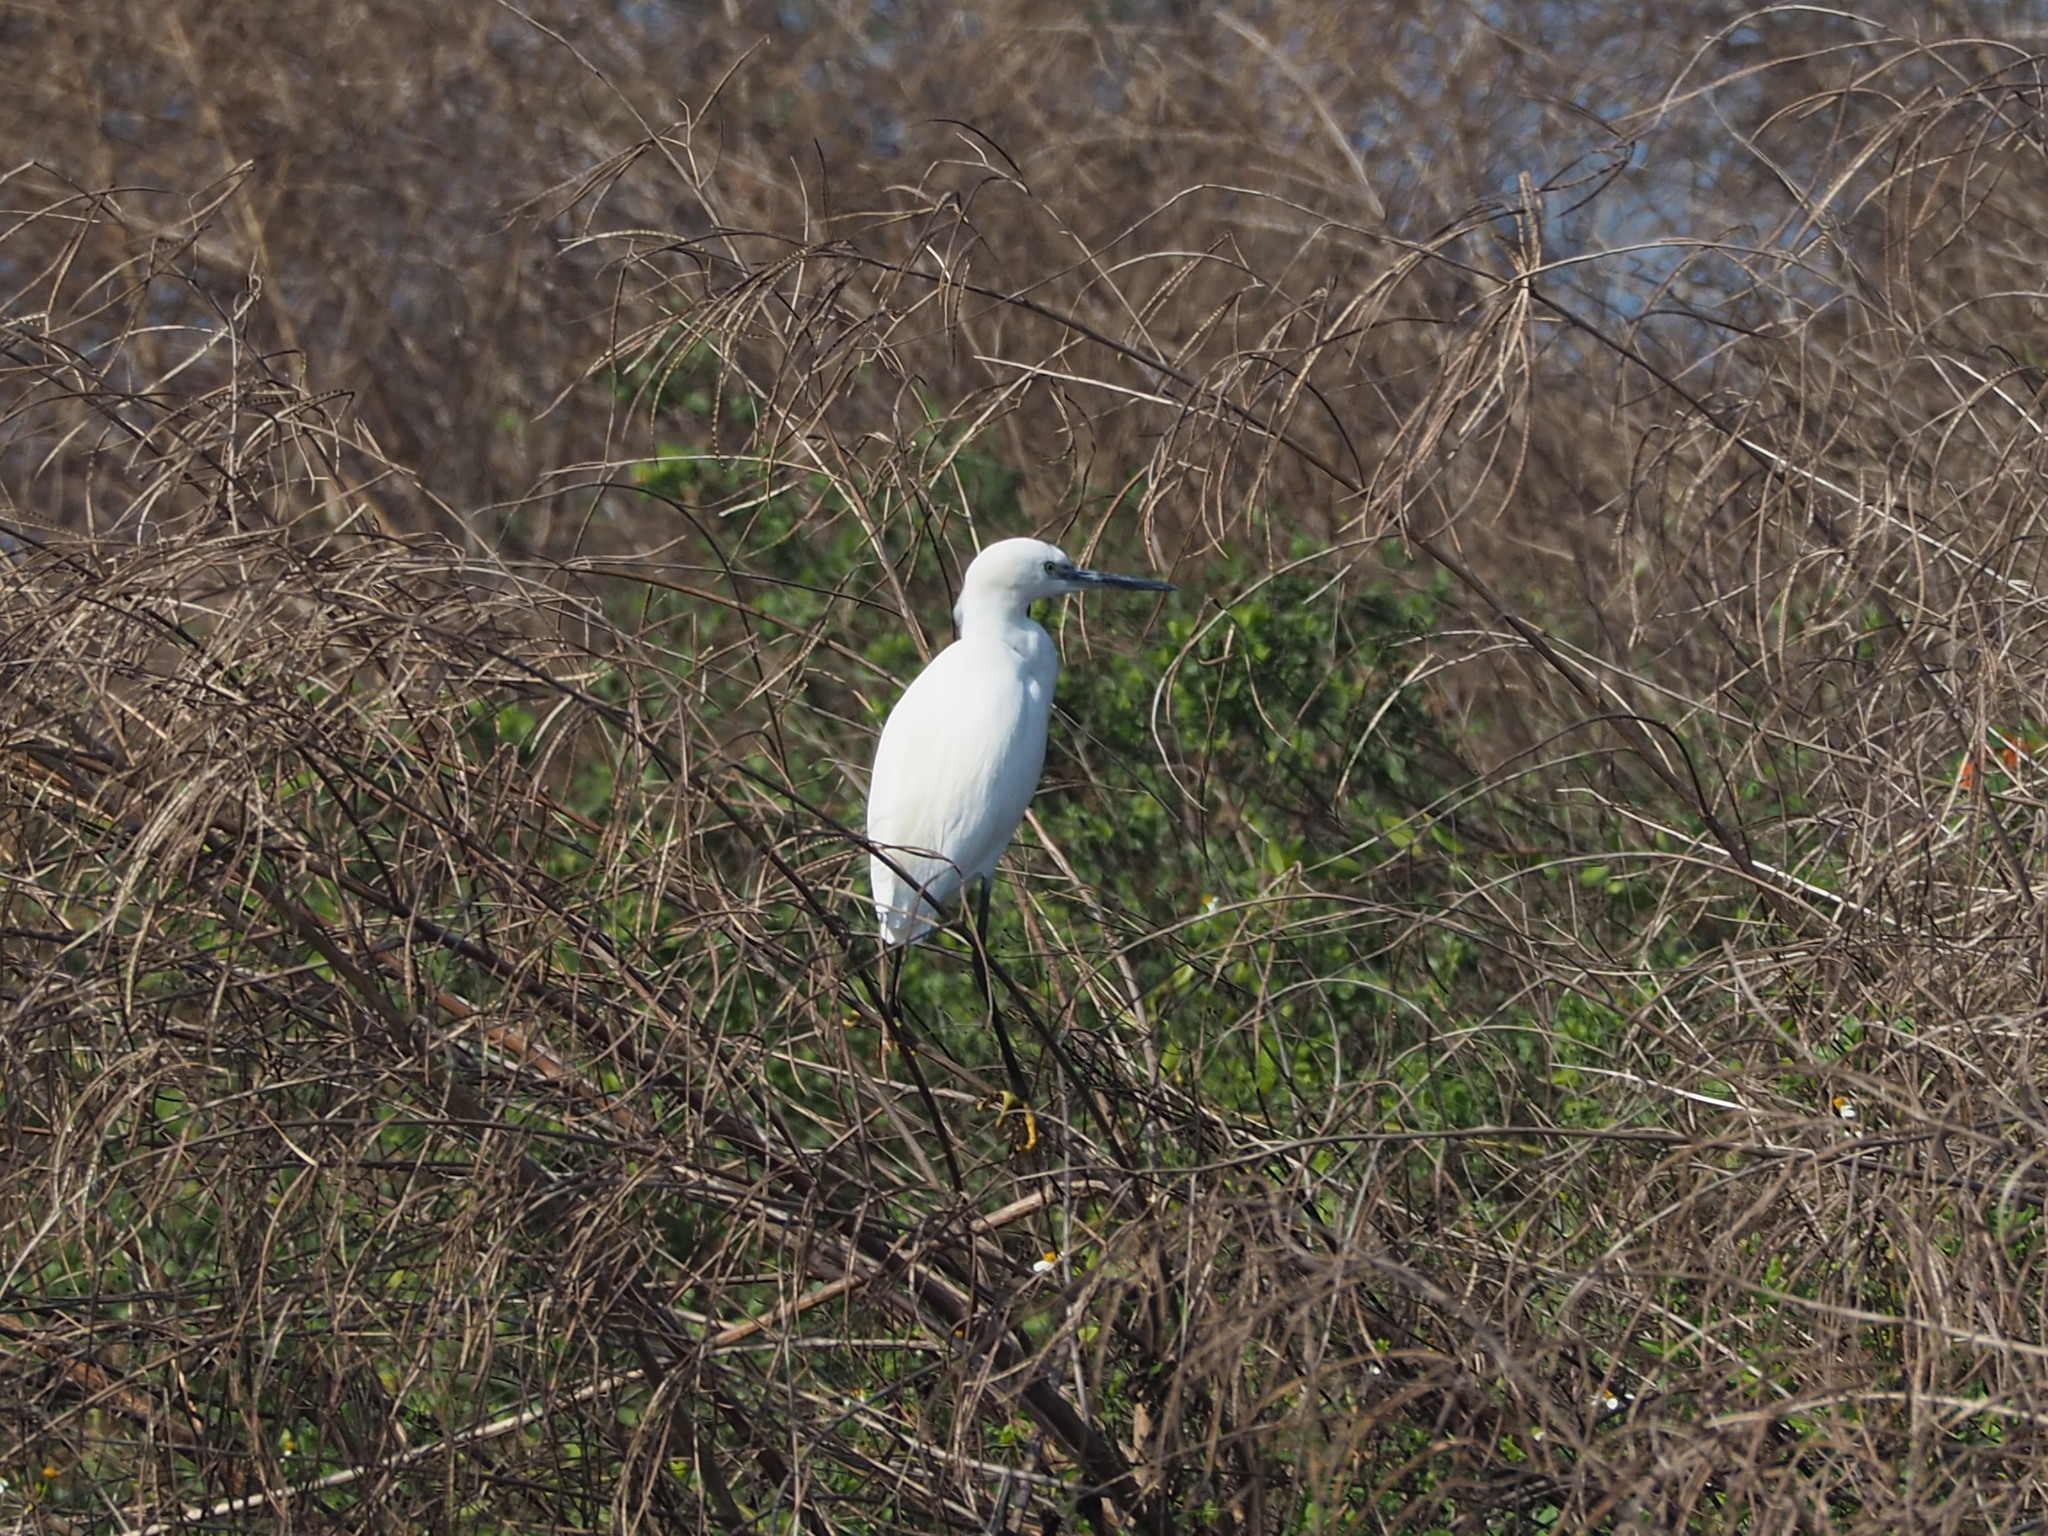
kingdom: Animalia
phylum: Chordata
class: Aves
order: Pelecaniformes
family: Ardeidae
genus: Egretta
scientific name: Egretta garzetta
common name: Little egret
